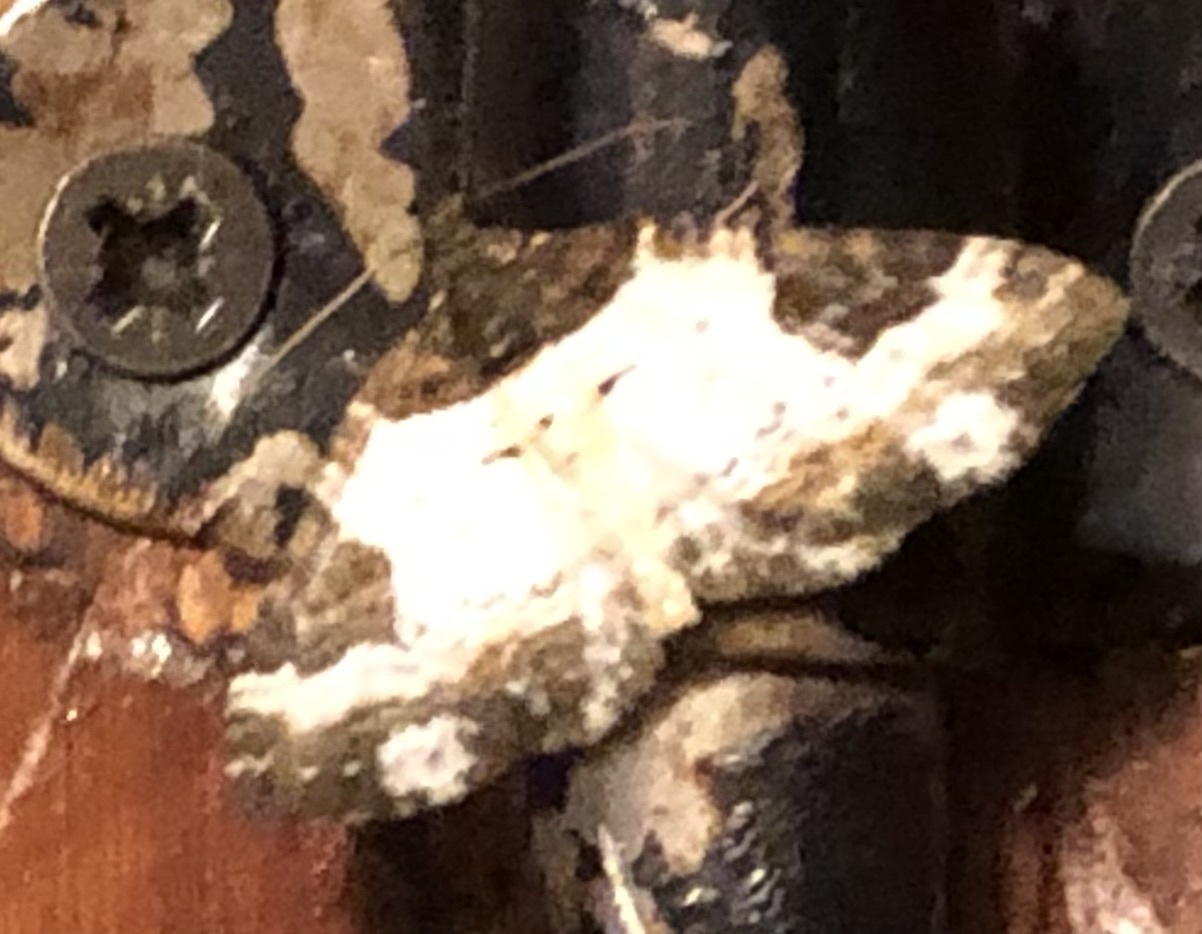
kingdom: Animalia
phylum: Arthropoda
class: Insecta
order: Lepidoptera
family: Geometridae
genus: Melanthia
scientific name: Melanthia procellata
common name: Pretty chalk carpet
